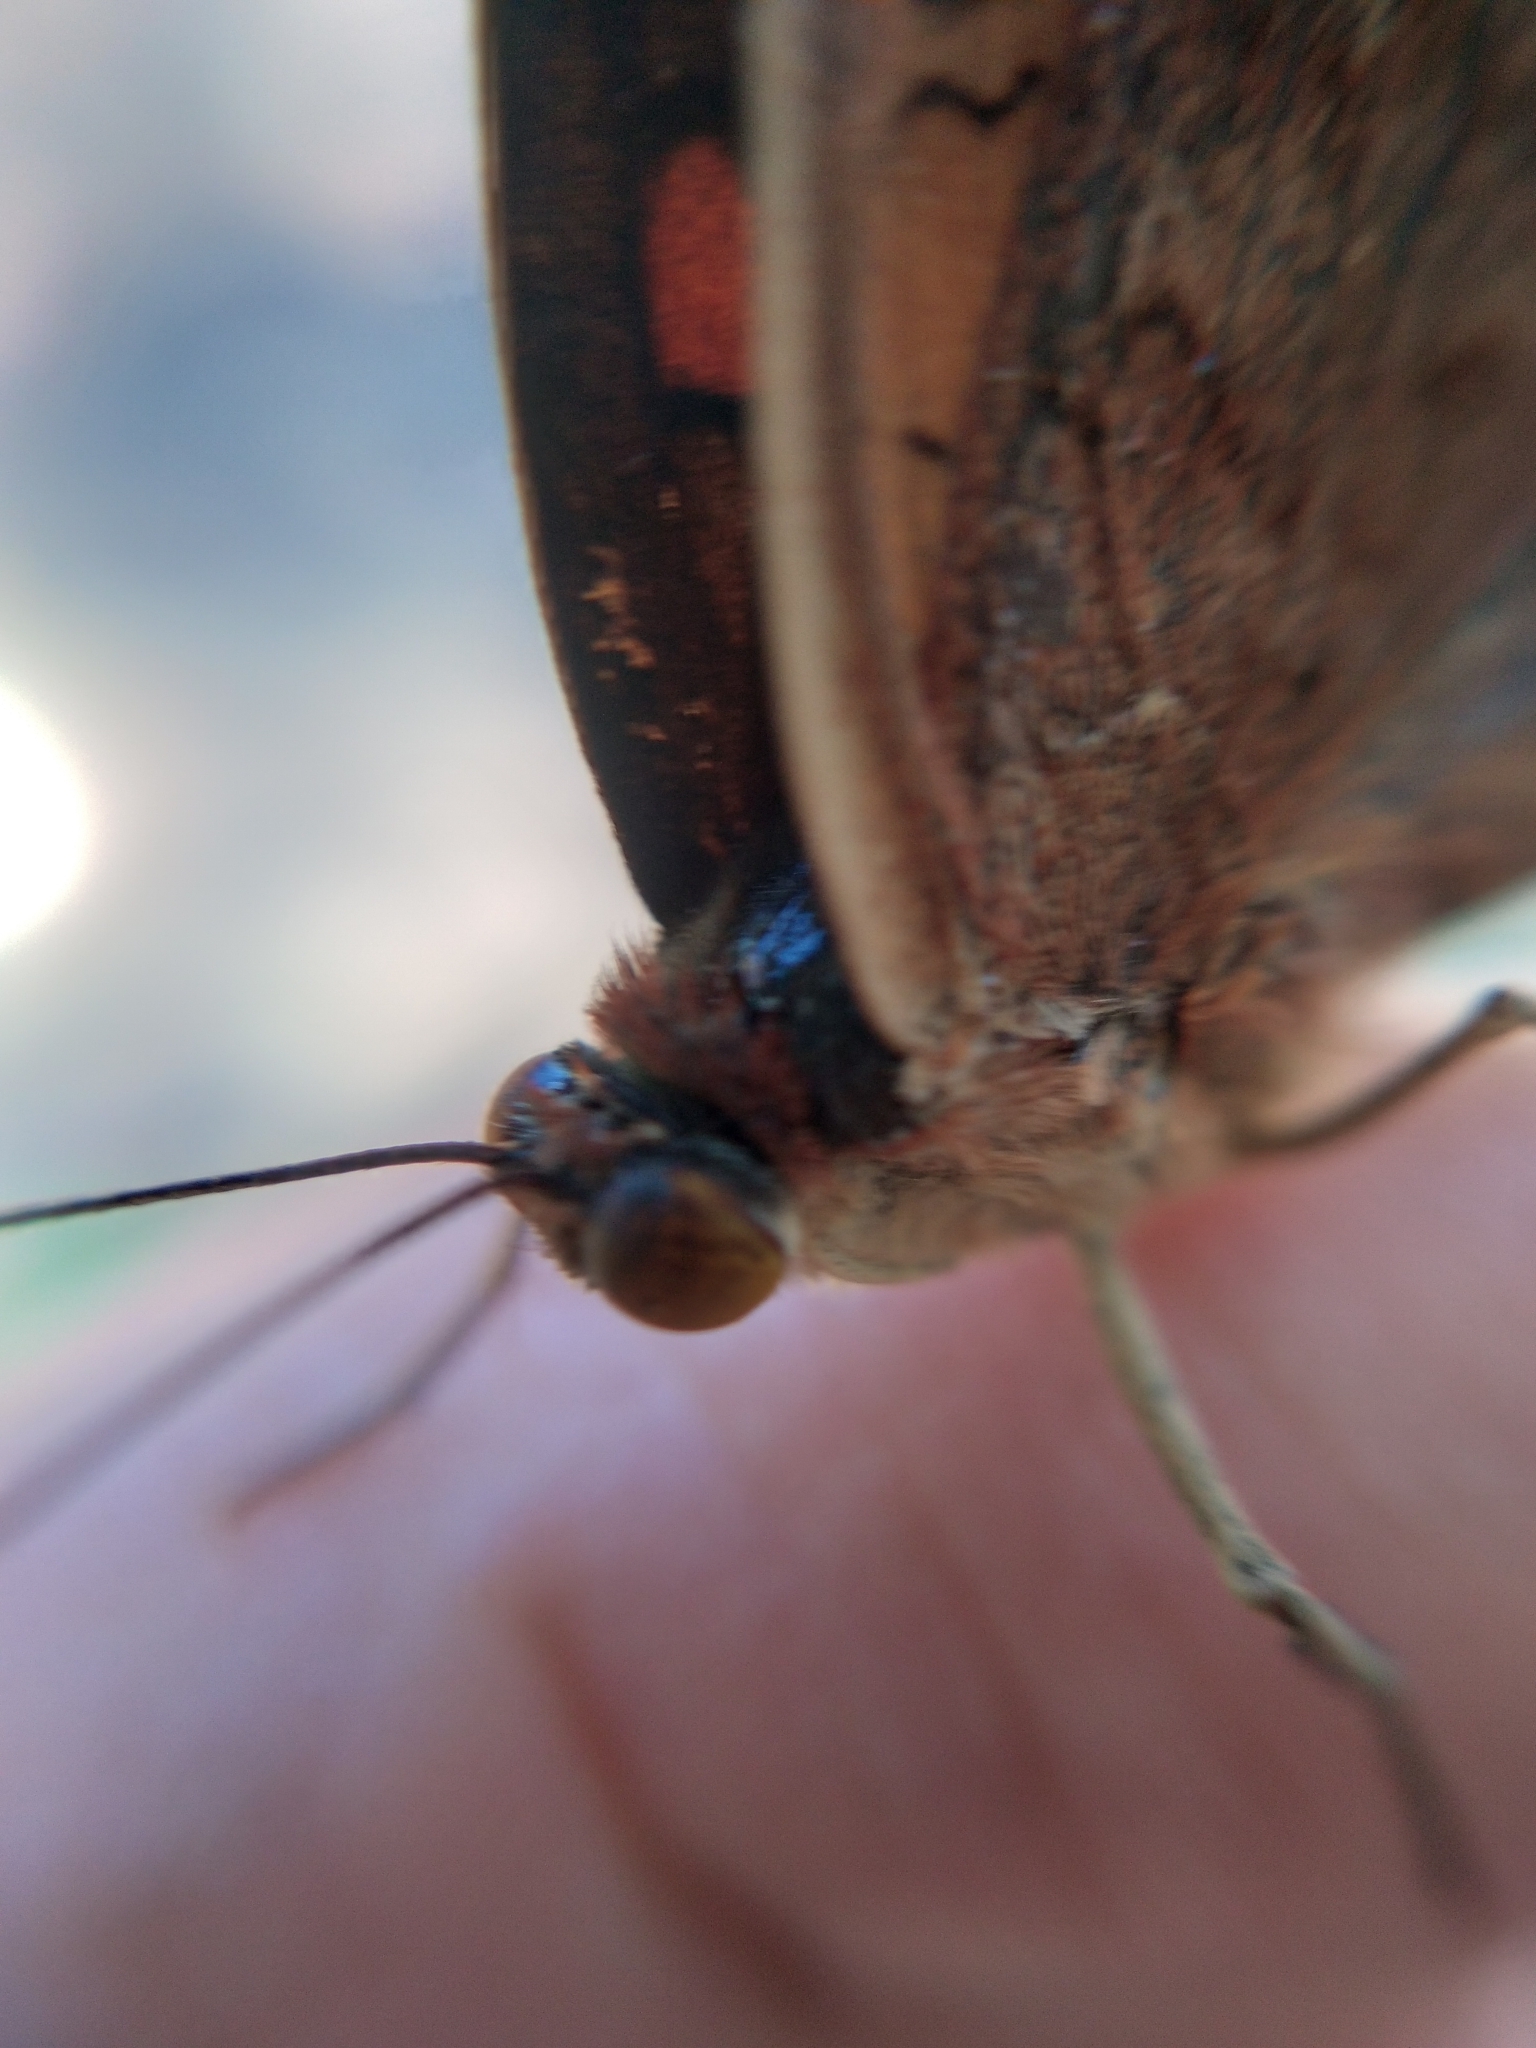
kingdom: Animalia
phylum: Arthropoda
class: Insecta
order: Lepidoptera
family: Nymphalidae
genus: Junonia
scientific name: Junonia lavinia
